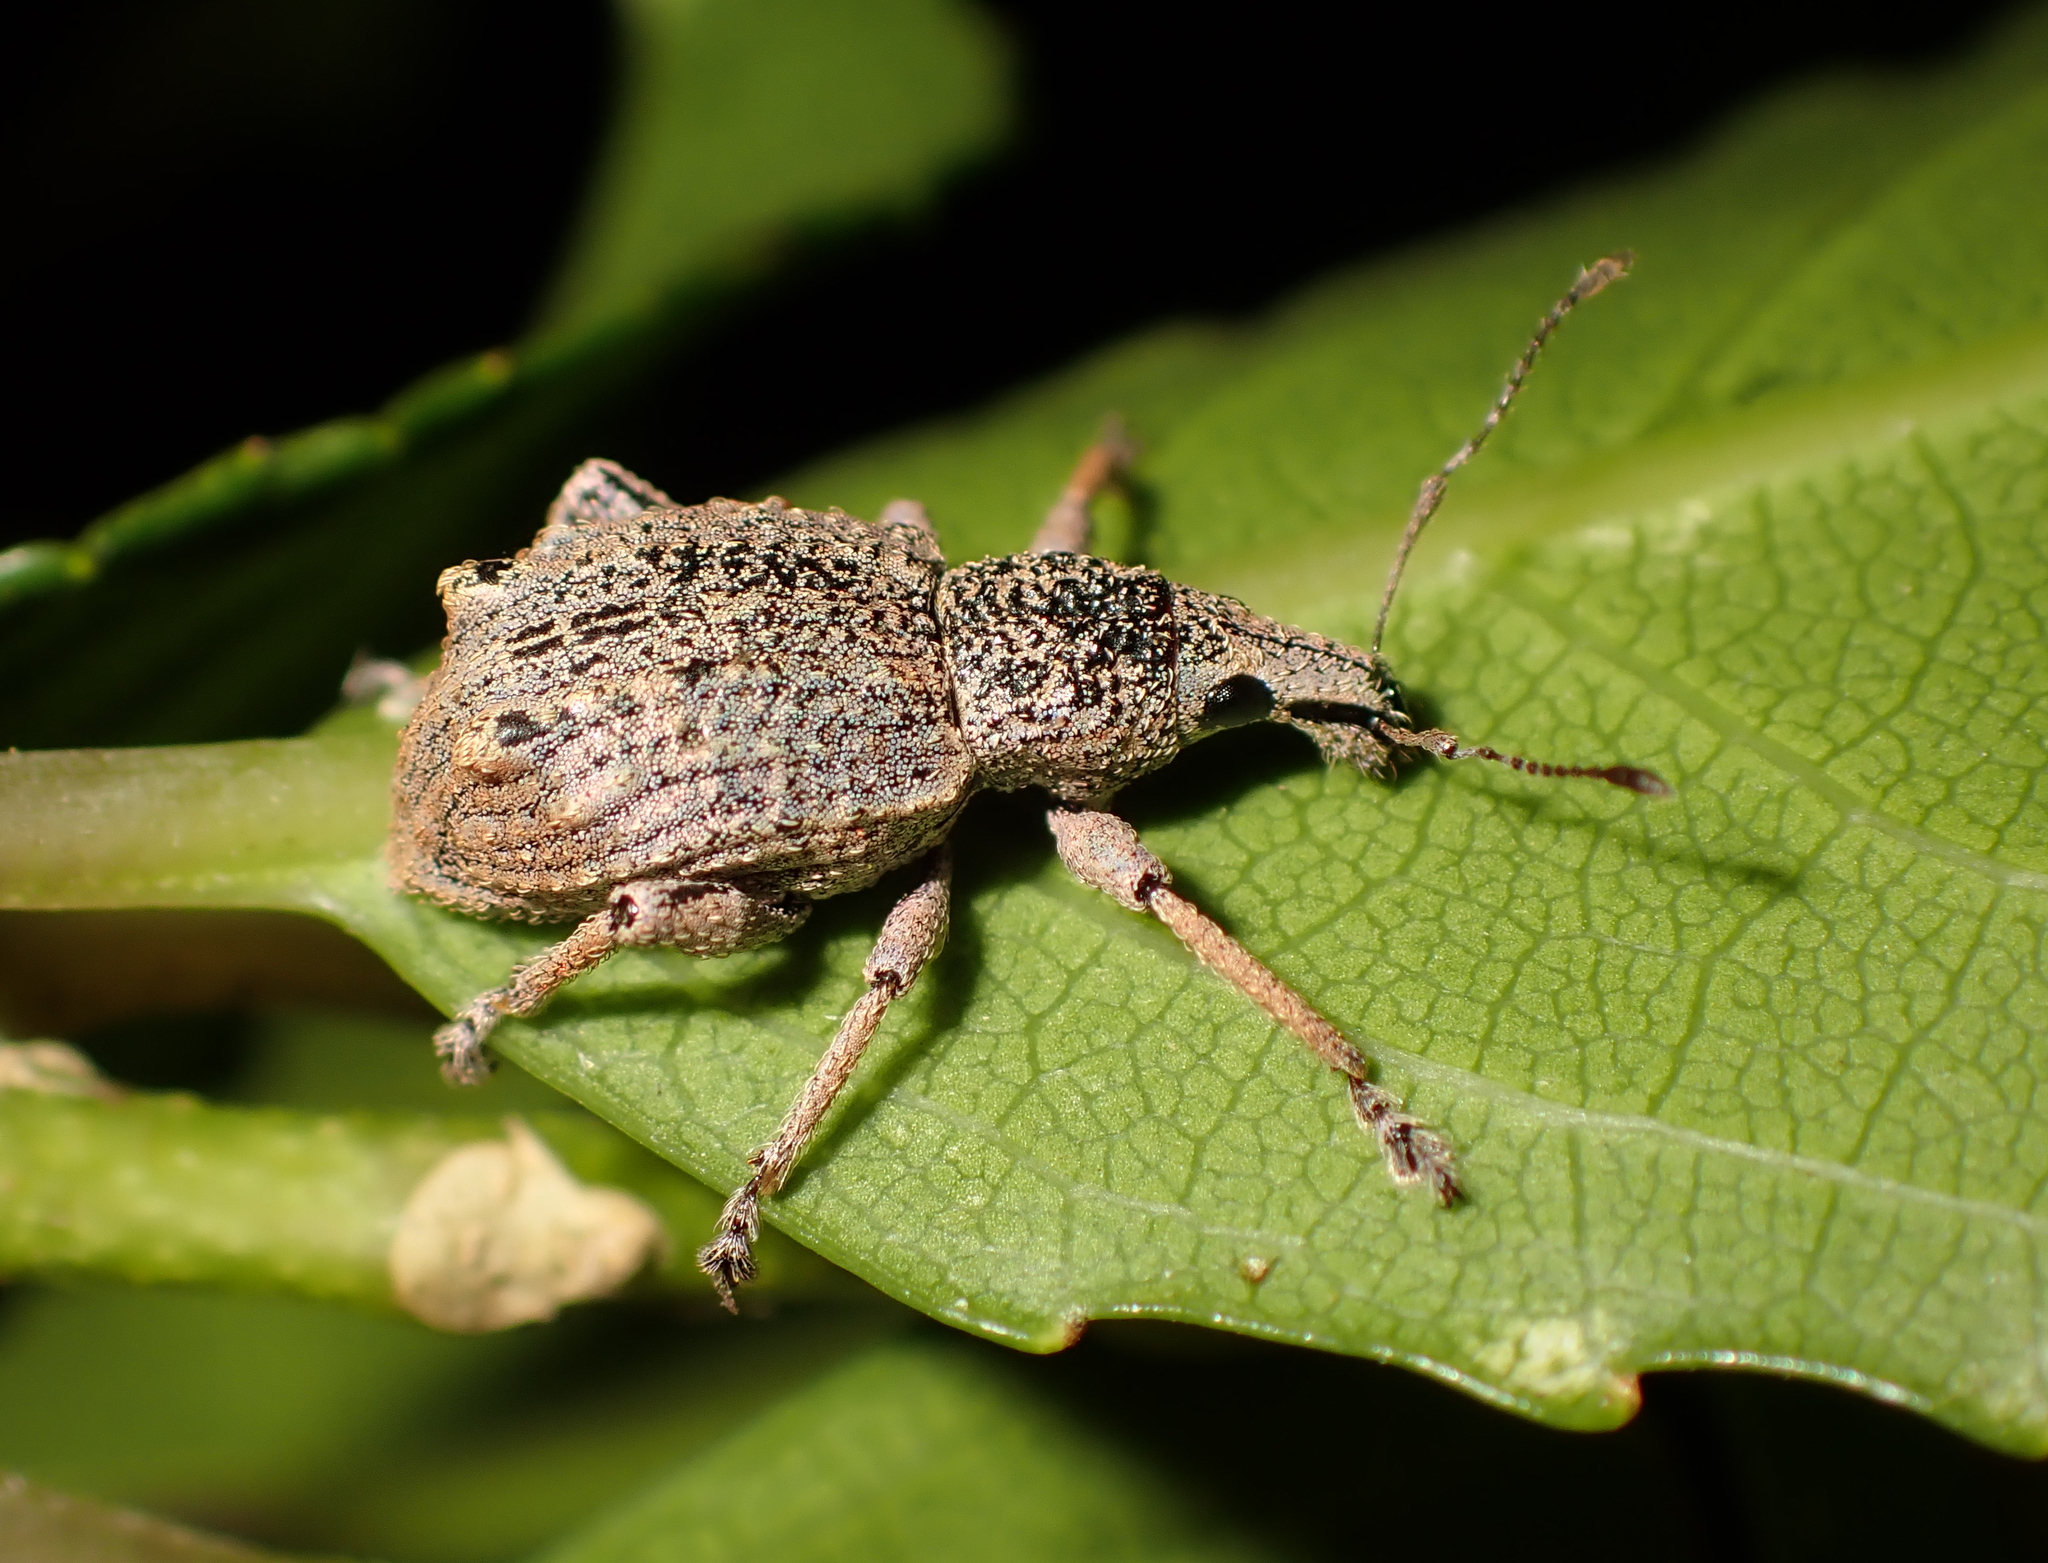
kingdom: Animalia
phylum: Arthropoda
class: Insecta
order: Coleoptera
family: Curculionidae
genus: Catoptes
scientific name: Catoptes binodis
